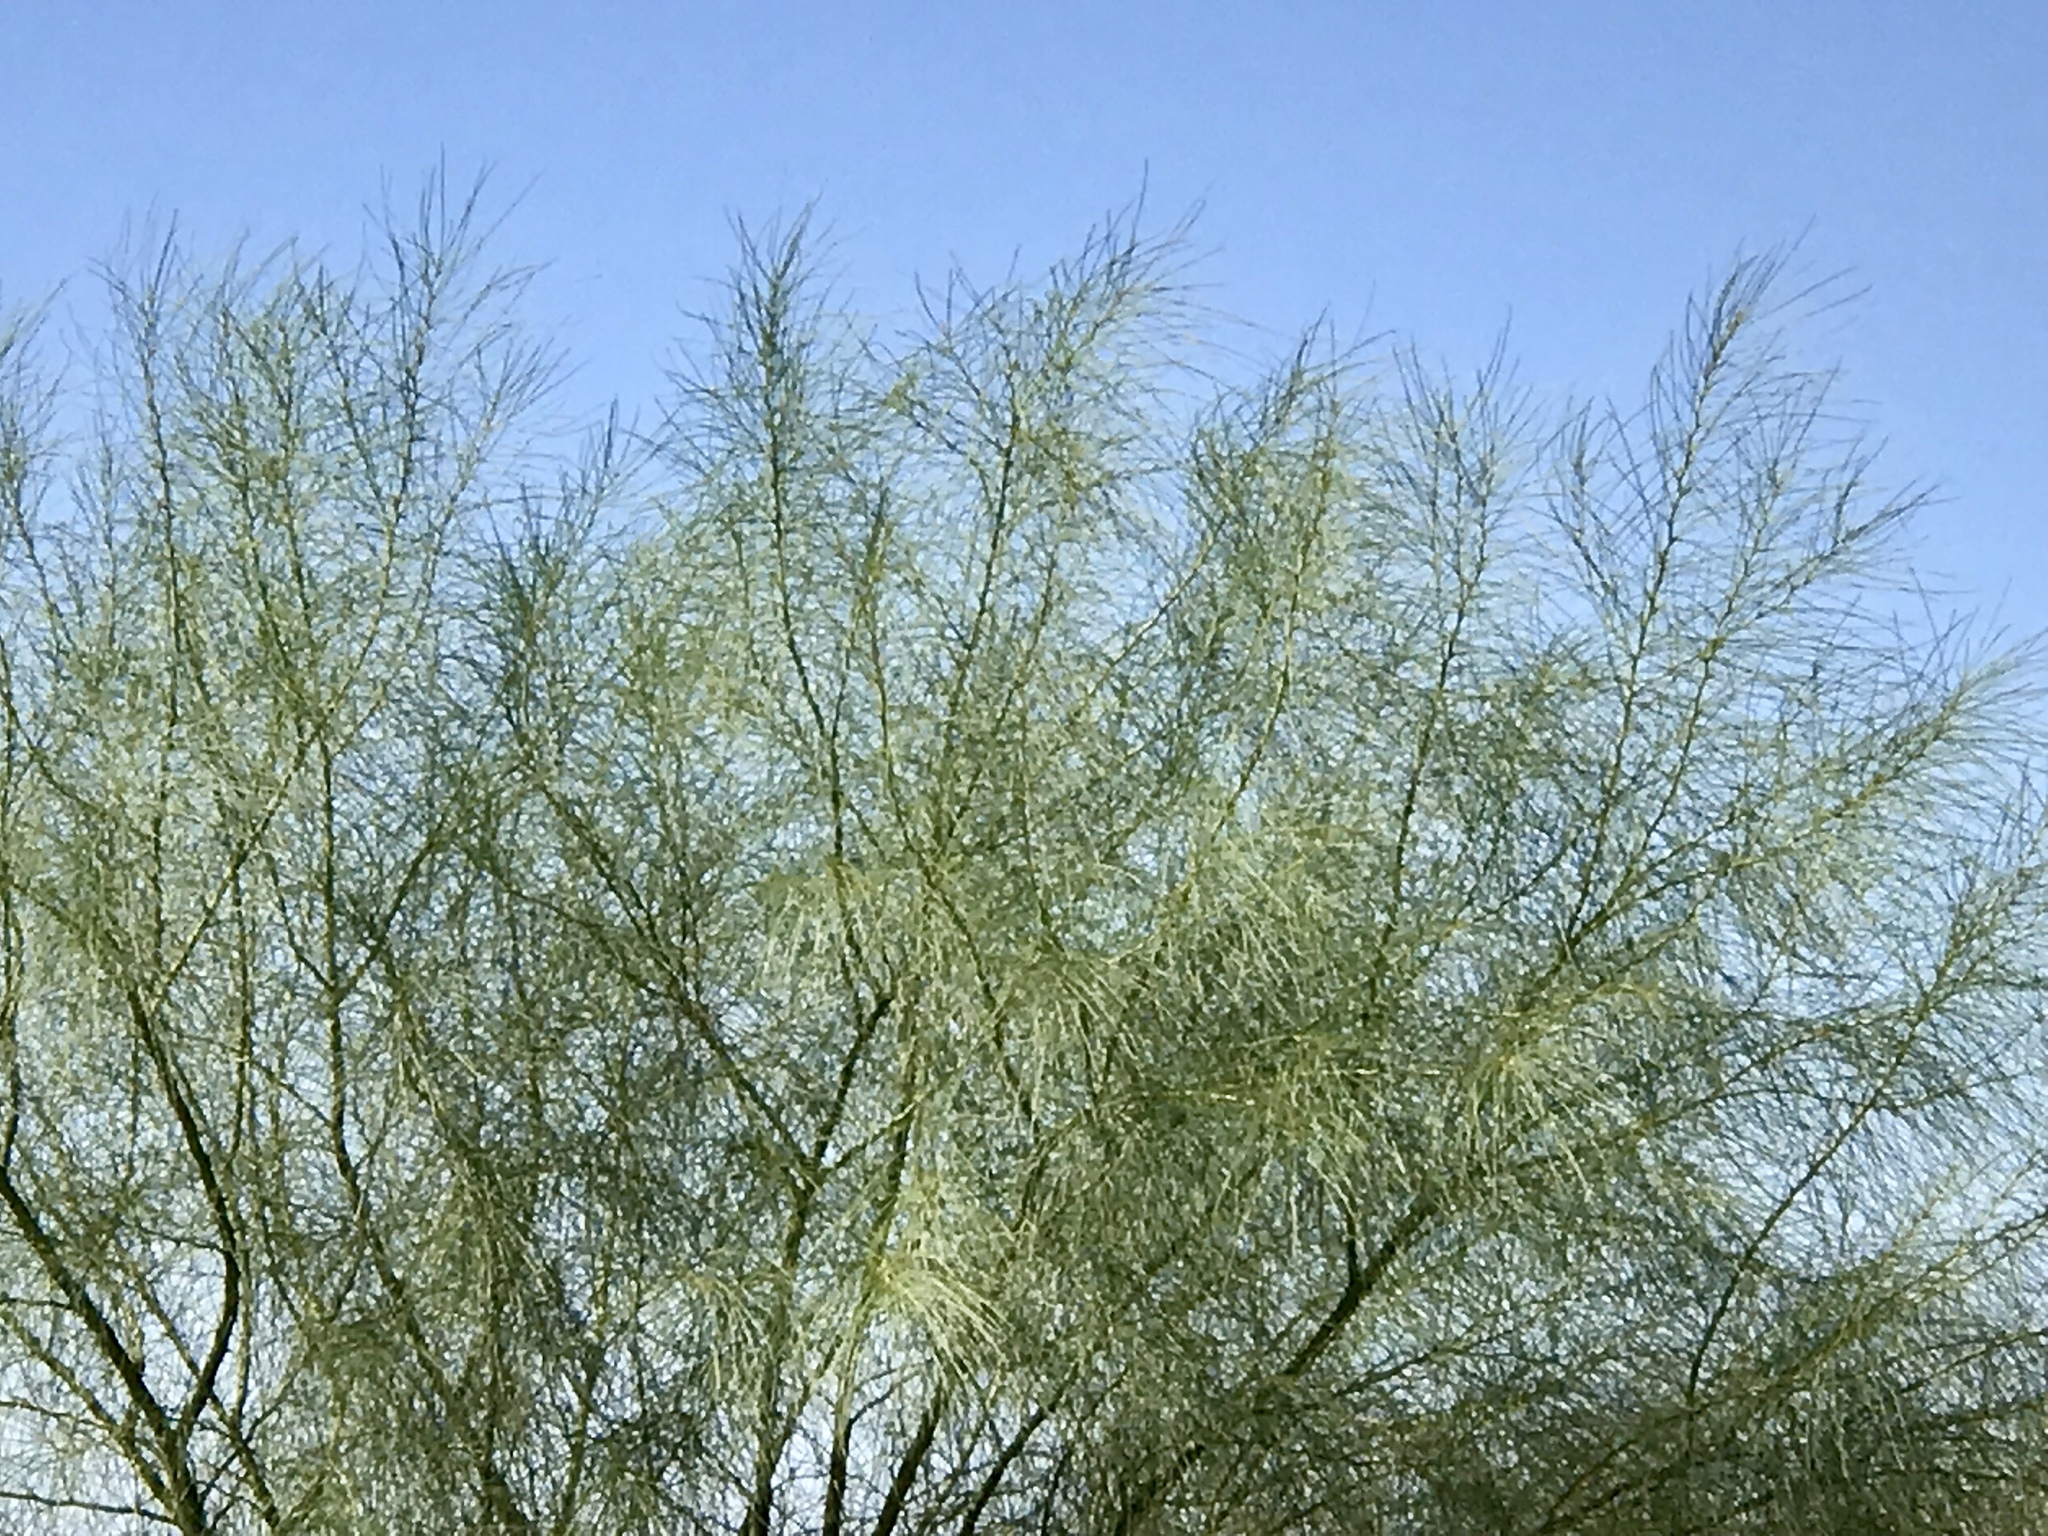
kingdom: Plantae
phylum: Tracheophyta
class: Magnoliopsida
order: Fabales
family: Fabaceae
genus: Parkinsonia
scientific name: Parkinsonia aculeata
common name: Jerusalem thorn
